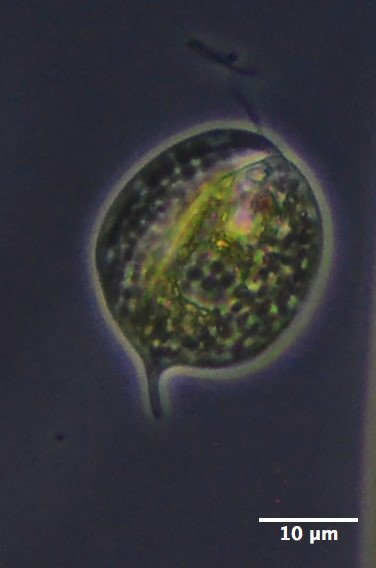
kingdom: Protozoa
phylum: Euglenozoa
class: Euglenoidea
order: Euglenida
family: Phacidae
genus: Phacus
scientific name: Phacus circulatus
